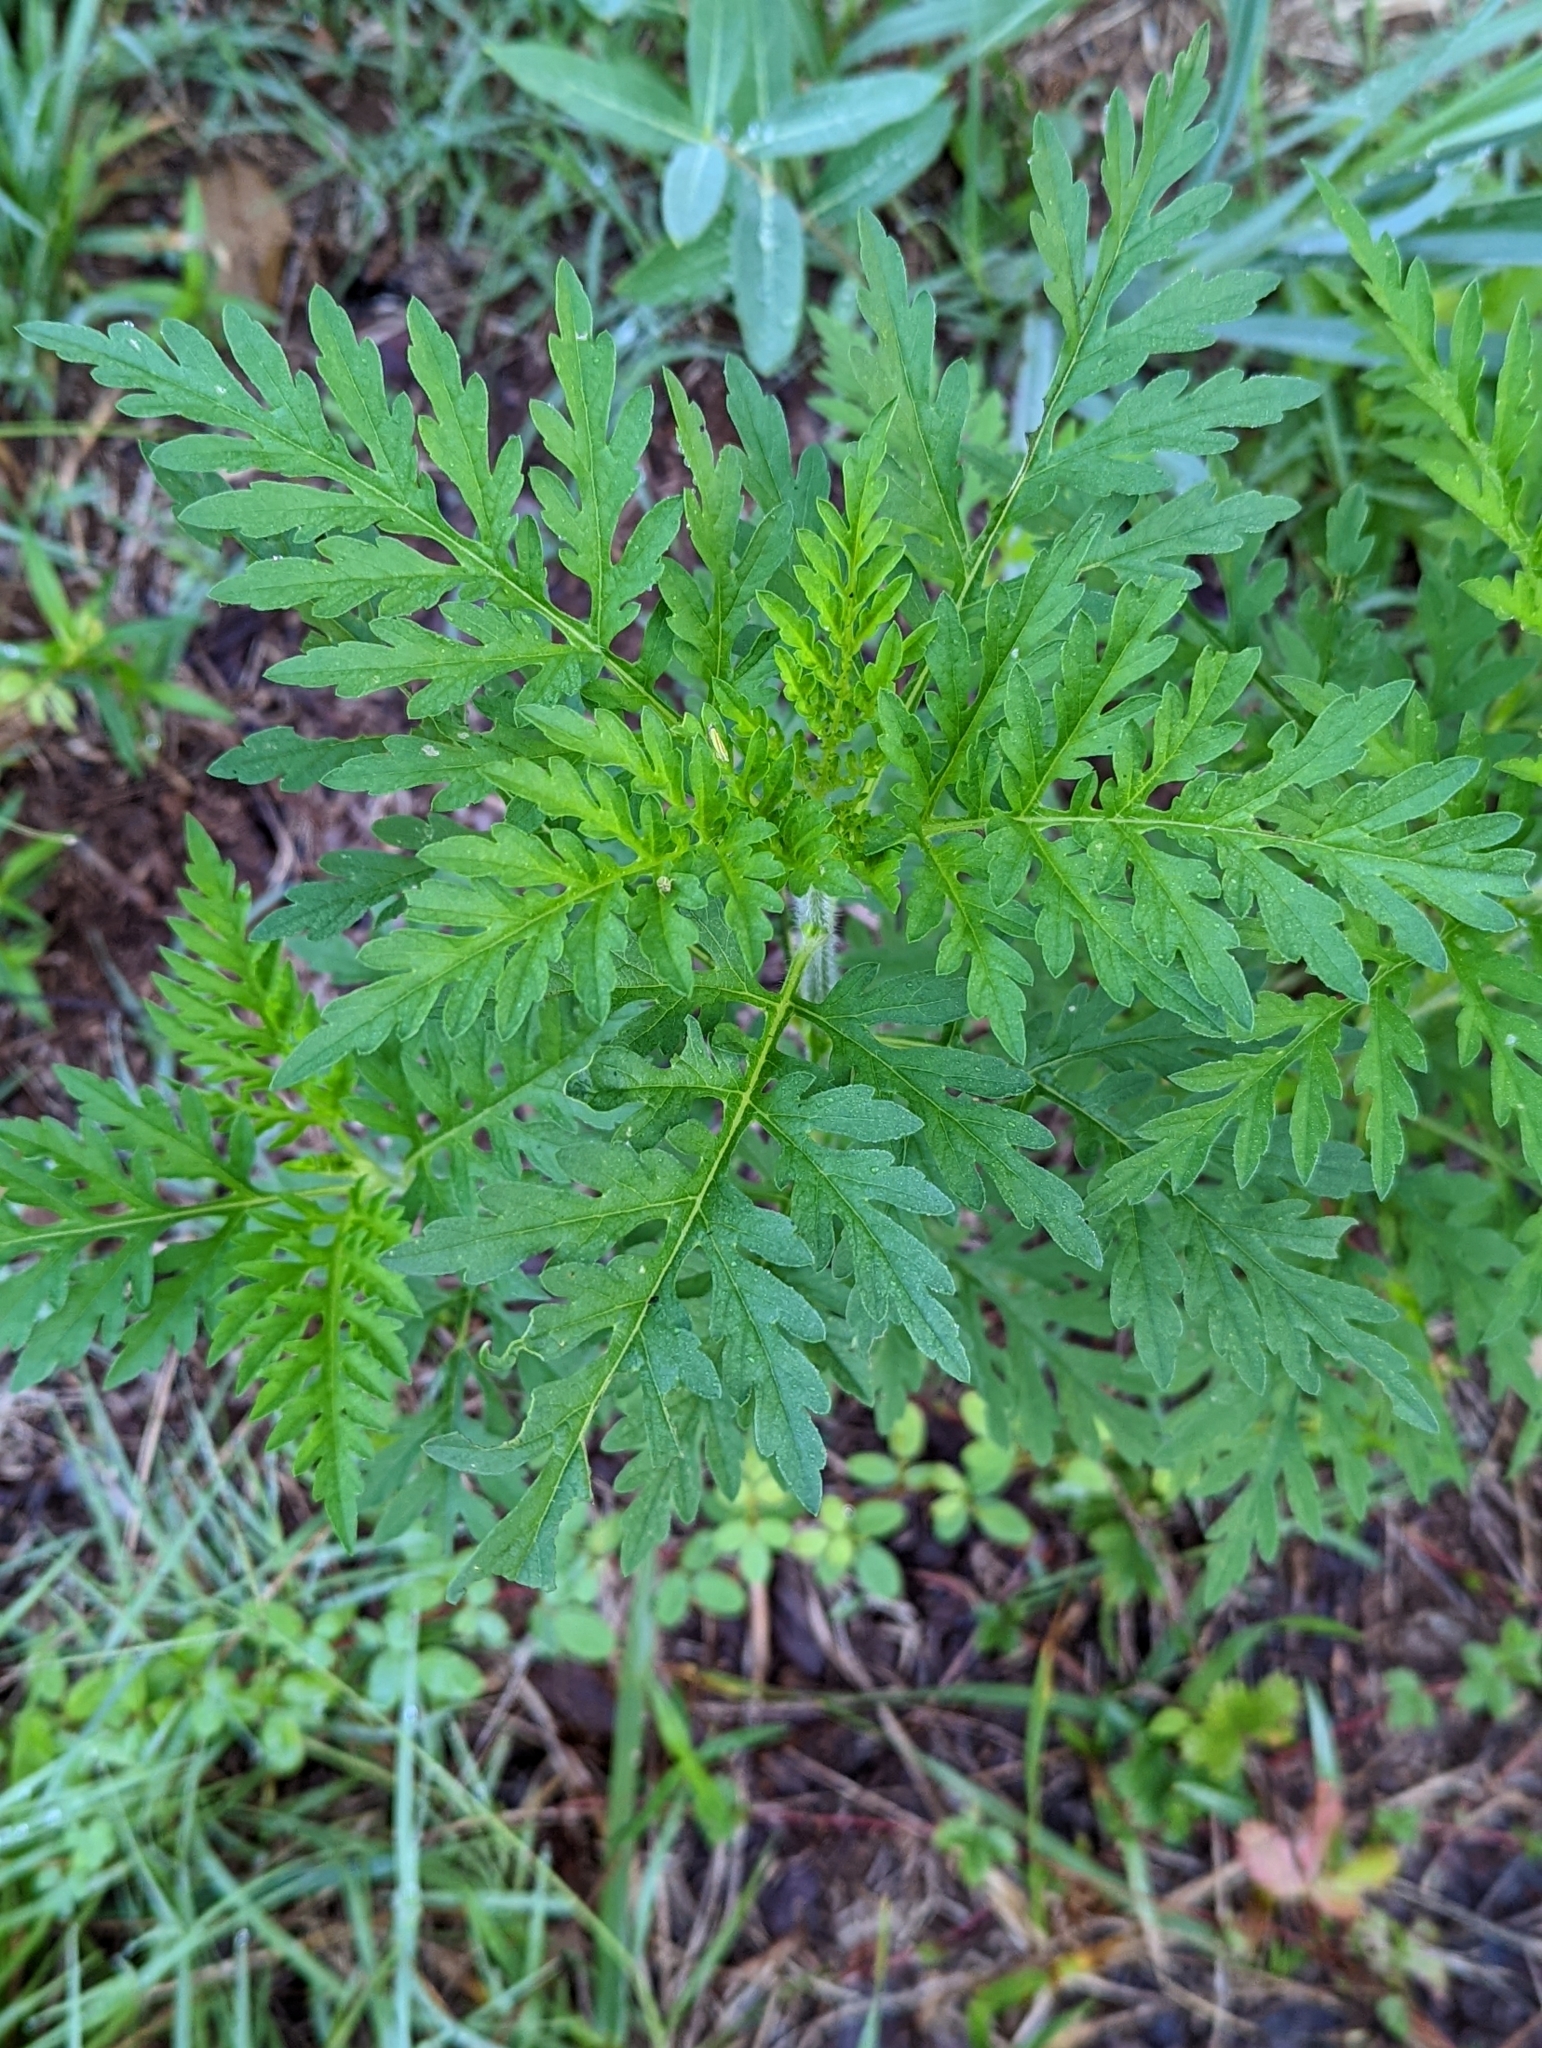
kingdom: Plantae
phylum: Tracheophyta
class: Magnoliopsida
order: Asterales
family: Asteraceae
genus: Ambrosia
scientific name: Ambrosia artemisiifolia
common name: Annual ragweed
